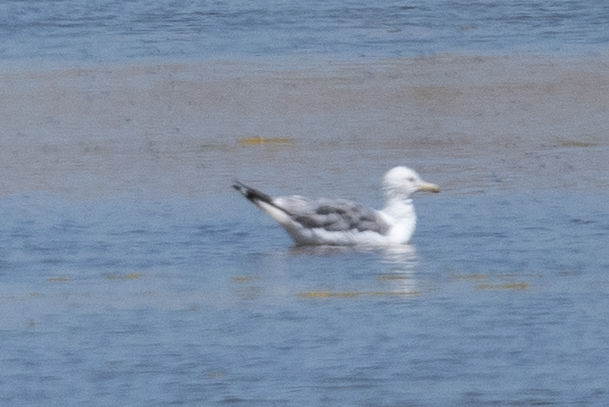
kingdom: Animalia
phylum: Chordata
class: Aves
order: Charadriiformes
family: Laridae
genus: Larus
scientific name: Larus californicus
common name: California gull
